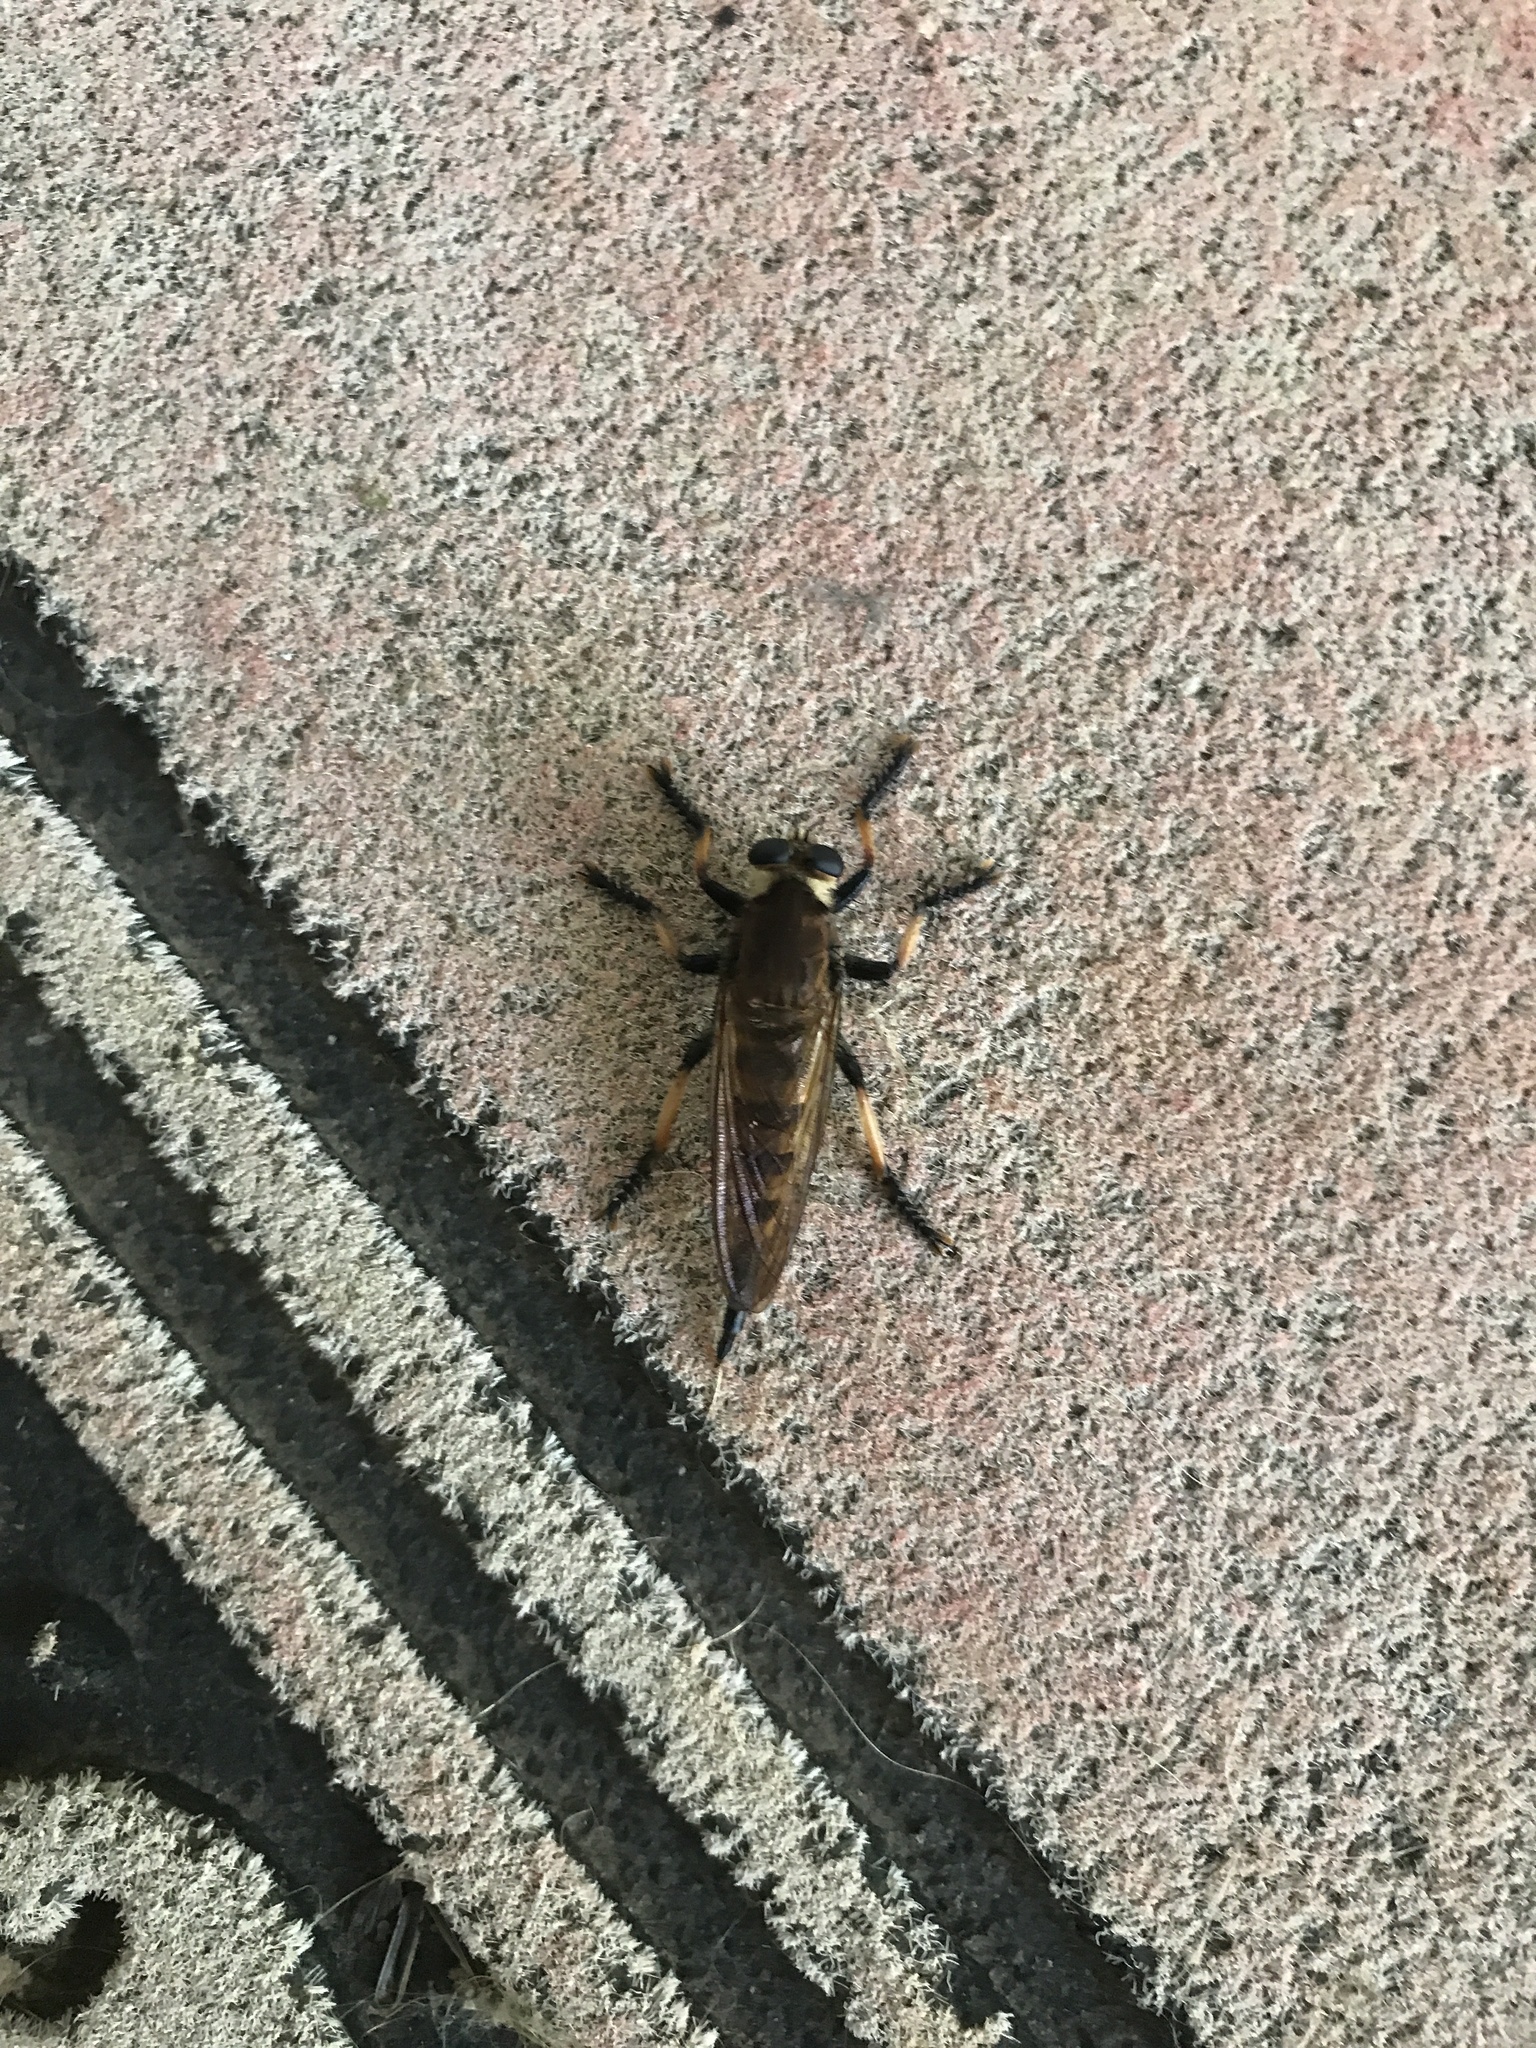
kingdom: Animalia
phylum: Arthropoda
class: Insecta
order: Diptera
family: Asilidae
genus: Promachus
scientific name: Promachus rufipes
